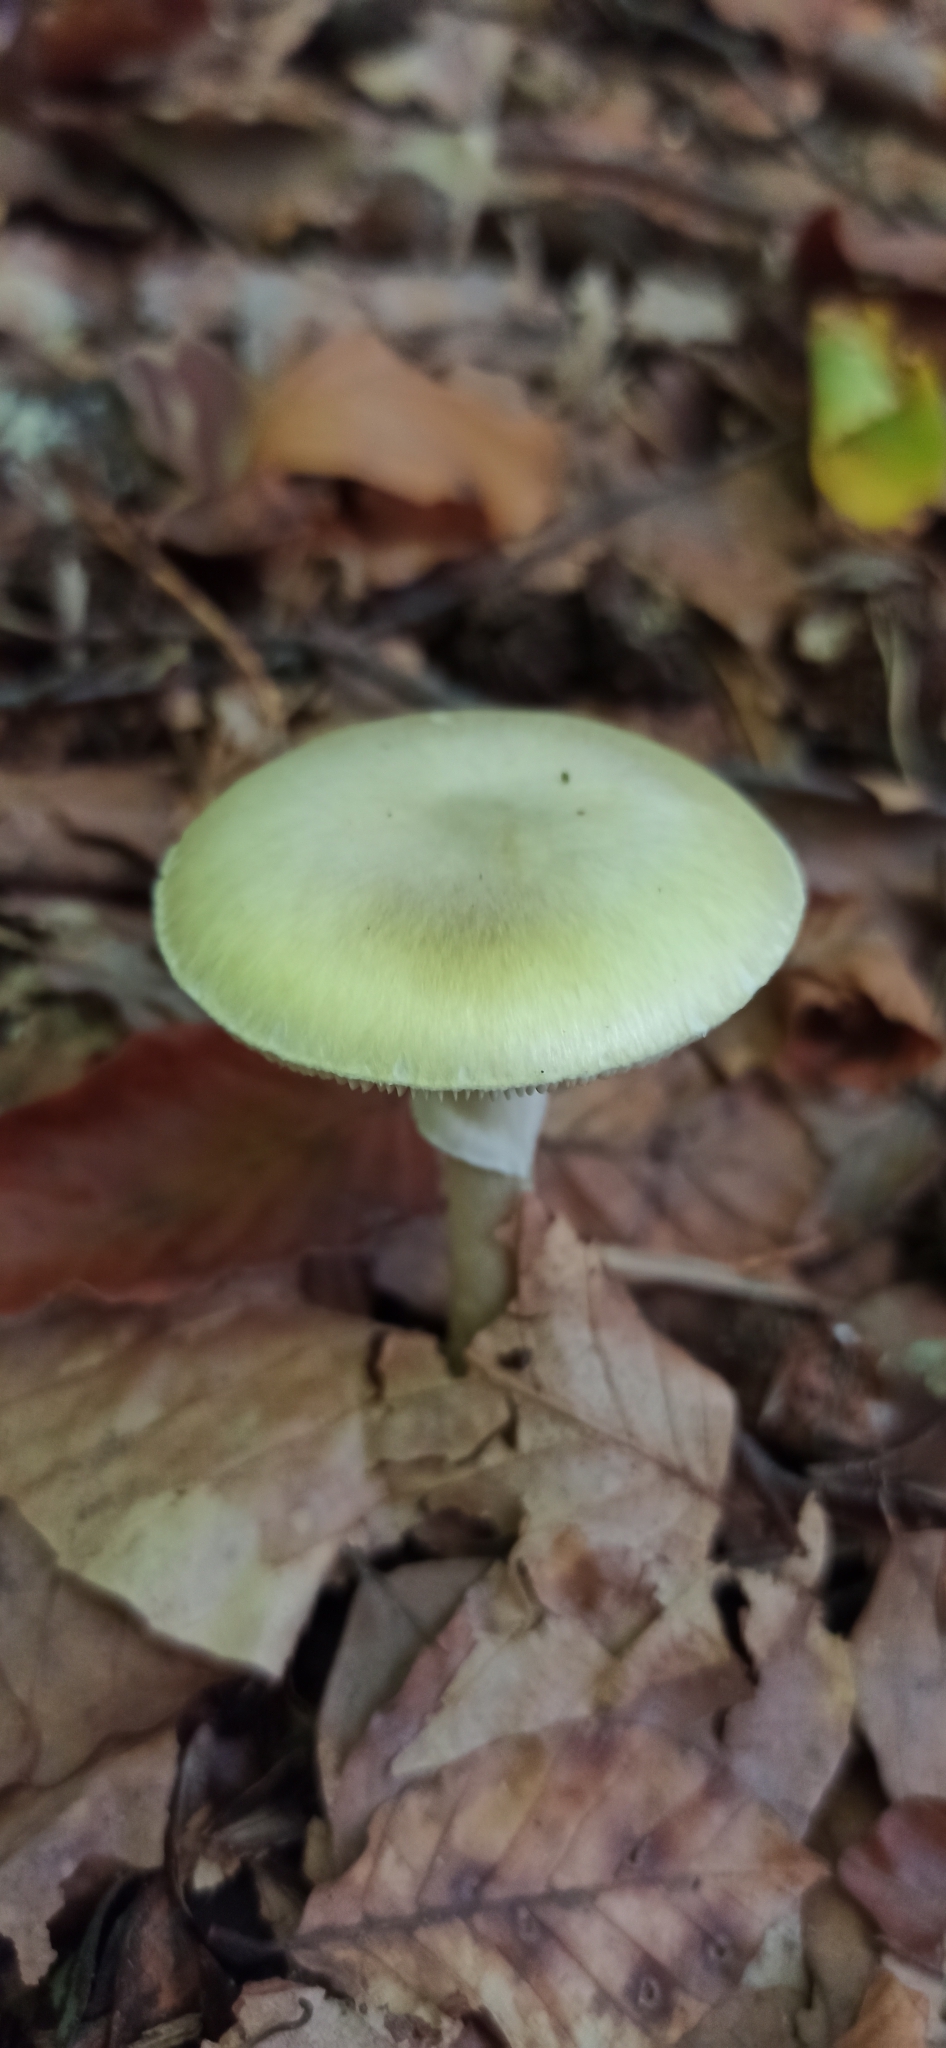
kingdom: Fungi
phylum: Basidiomycota
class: Agaricomycetes
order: Agaricales
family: Amanitaceae
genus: Amanita
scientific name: Amanita phalloides
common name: Death cap
